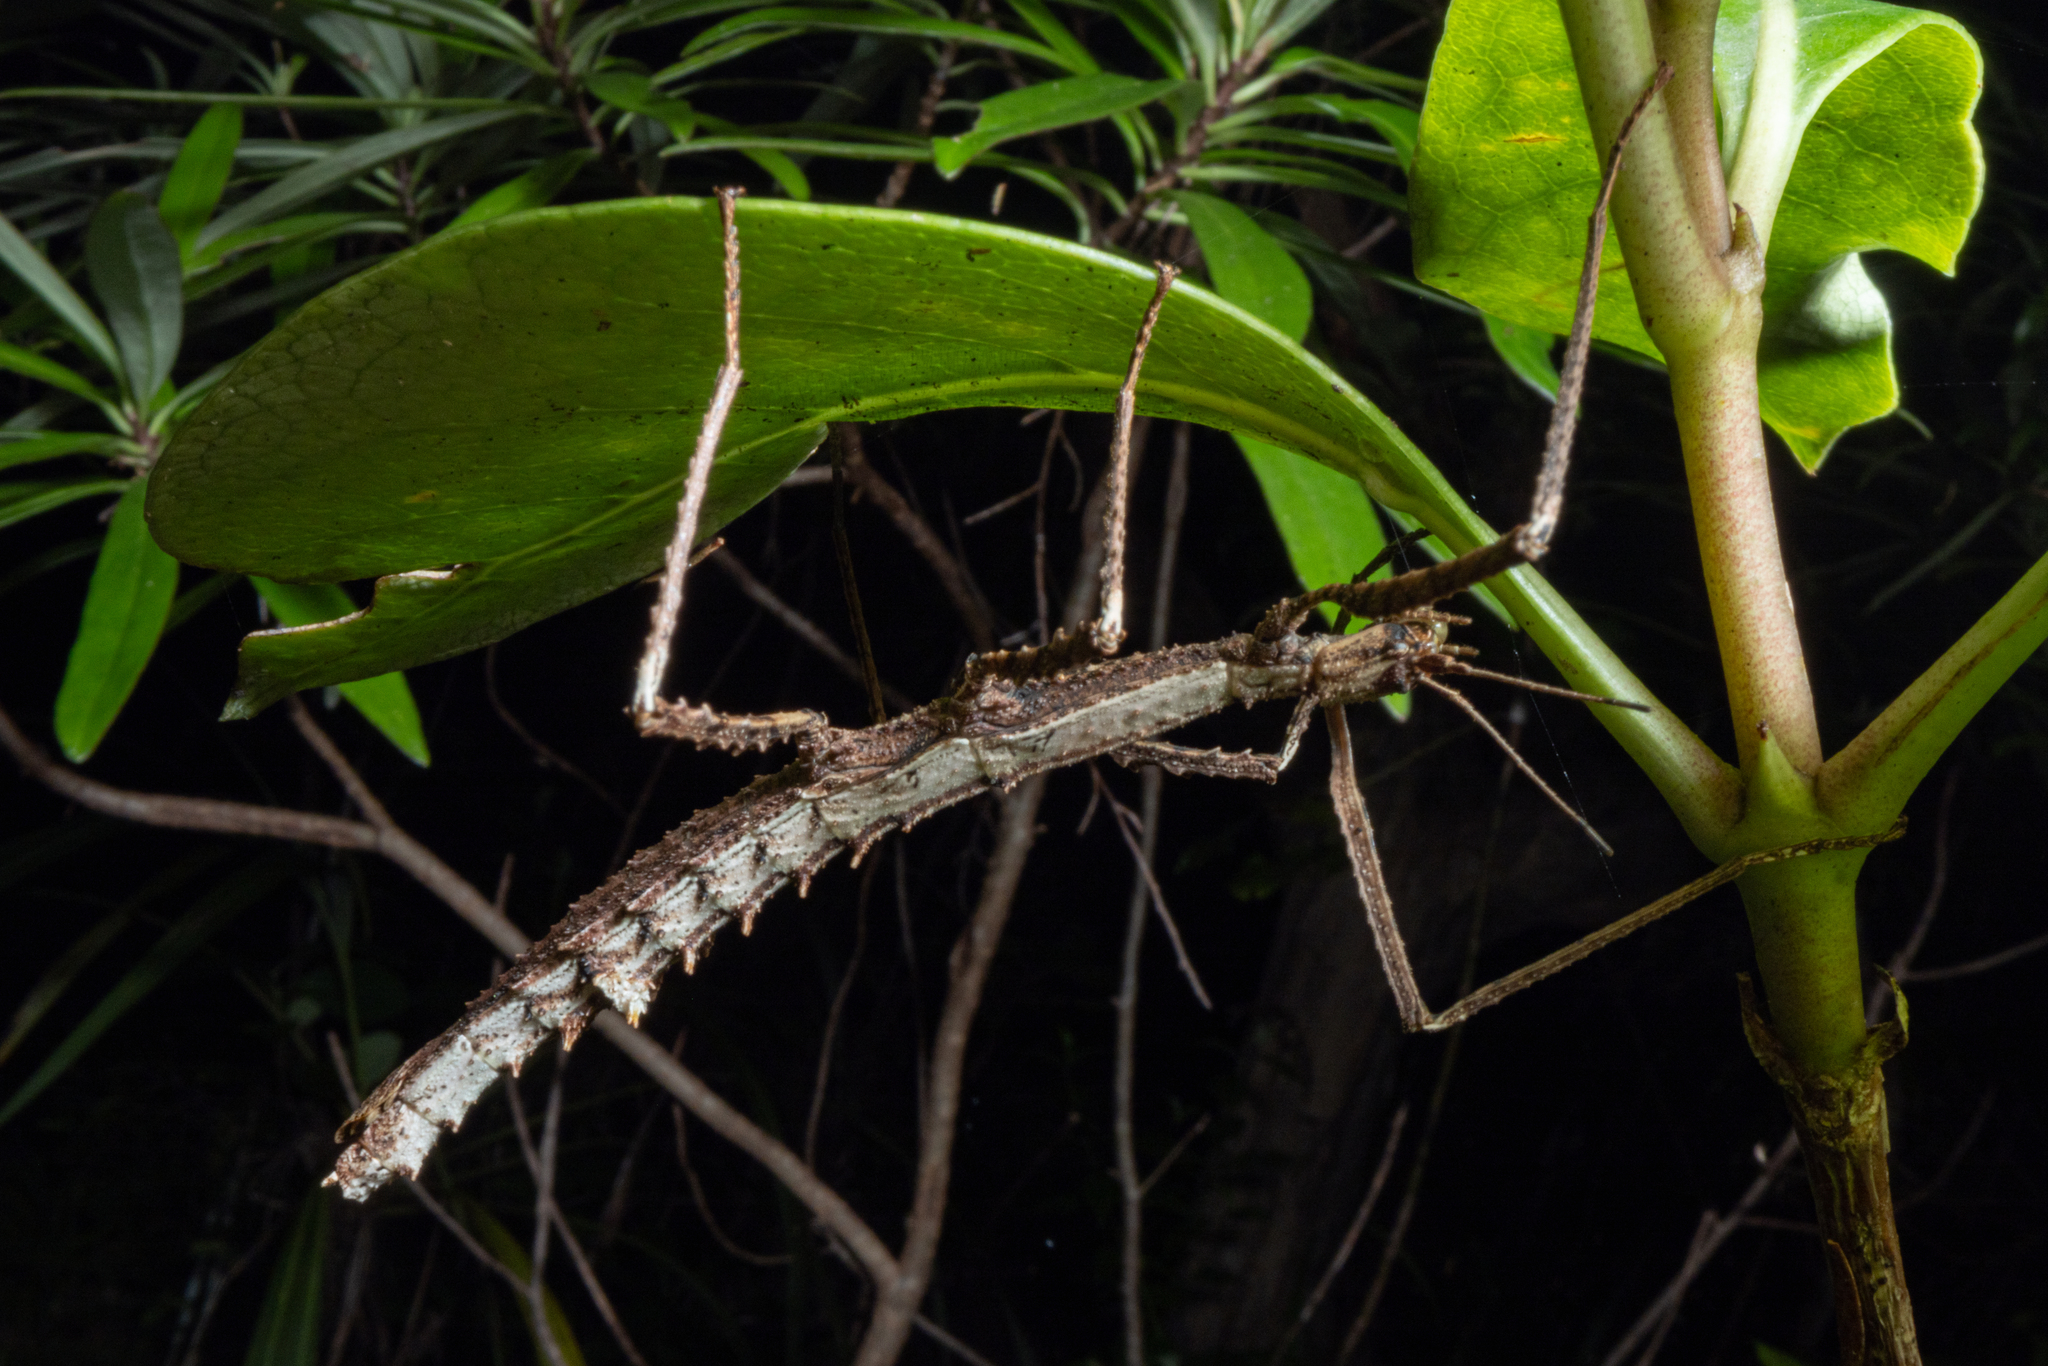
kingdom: Animalia
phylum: Arthropoda
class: Insecta
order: Phasmida
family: Phasmatidae
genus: Spinotectarchus
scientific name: Spinotectarchus acornutus
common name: The spiny ridge-backed stick insect
